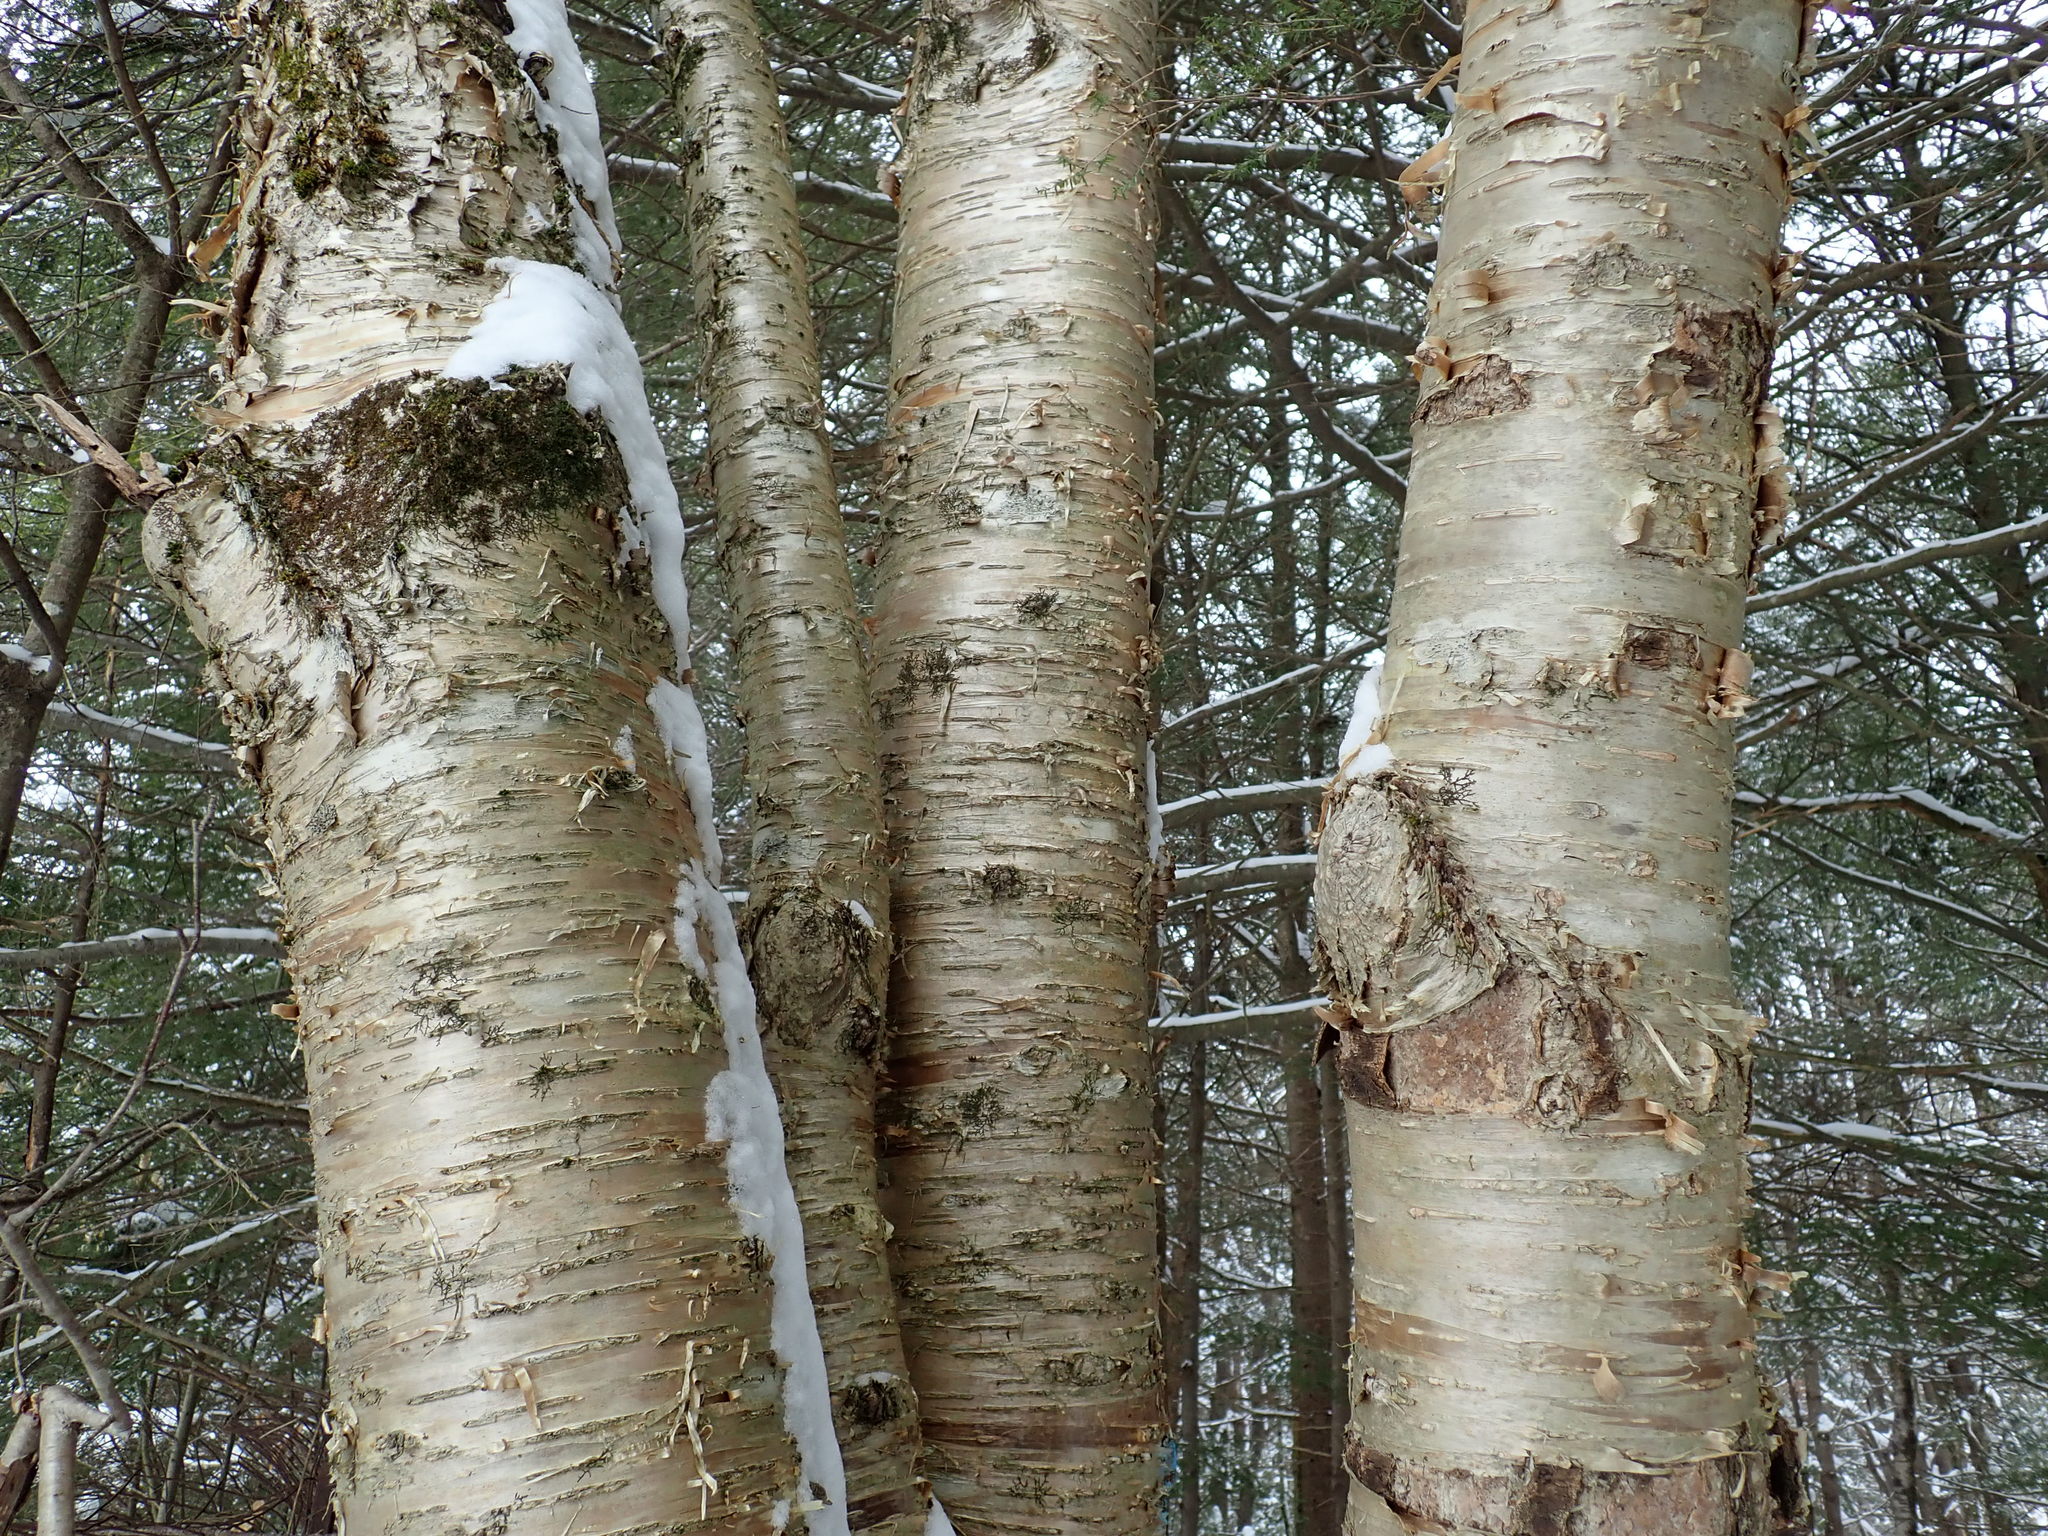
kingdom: Plantae
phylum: Tracheophyta
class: Magnoliopsida
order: Fagales
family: Betulaceae
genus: Betula
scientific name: Betula alleghaniensis
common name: Yellow birch
